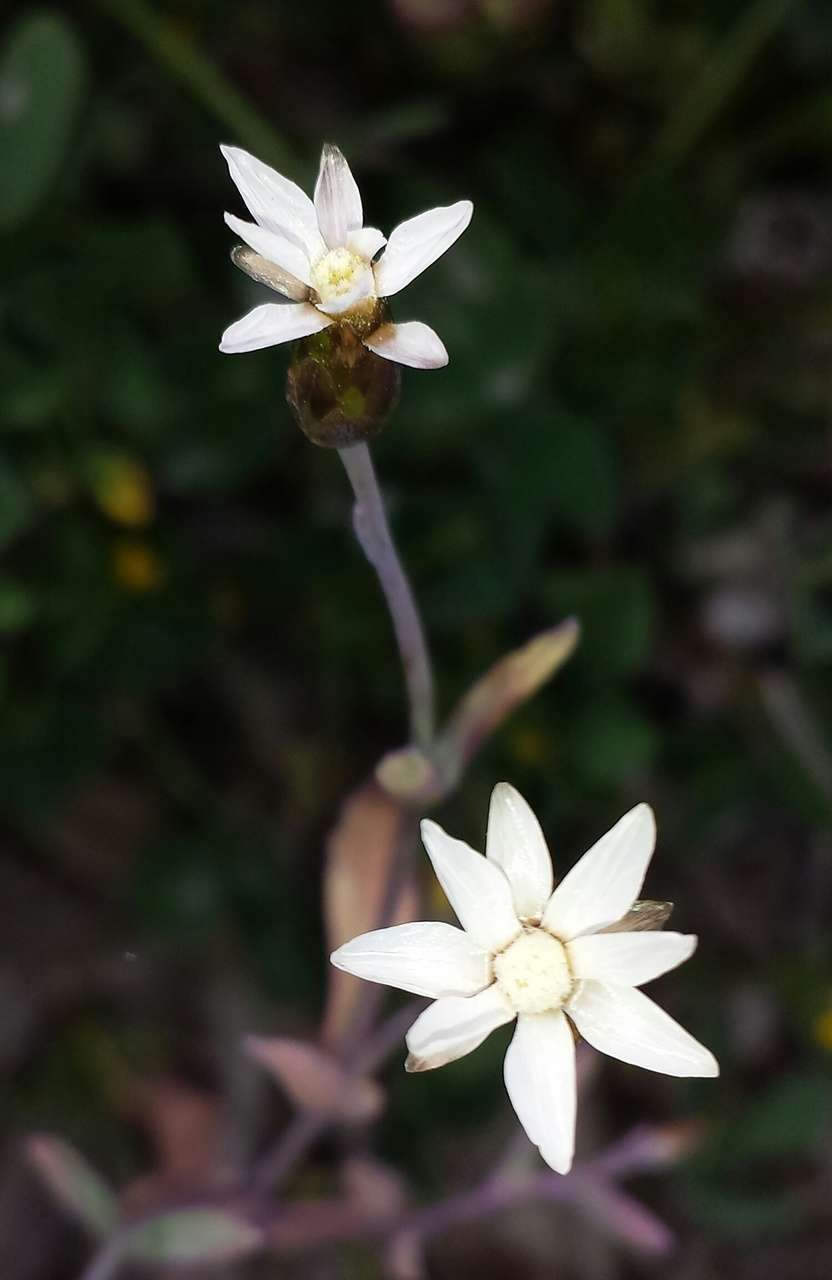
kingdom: Plantae
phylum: Tracheophyta
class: Magnoliopsida
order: Asterales
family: Asteraceae
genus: Rhodanthe
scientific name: Rhodanthe stricta
